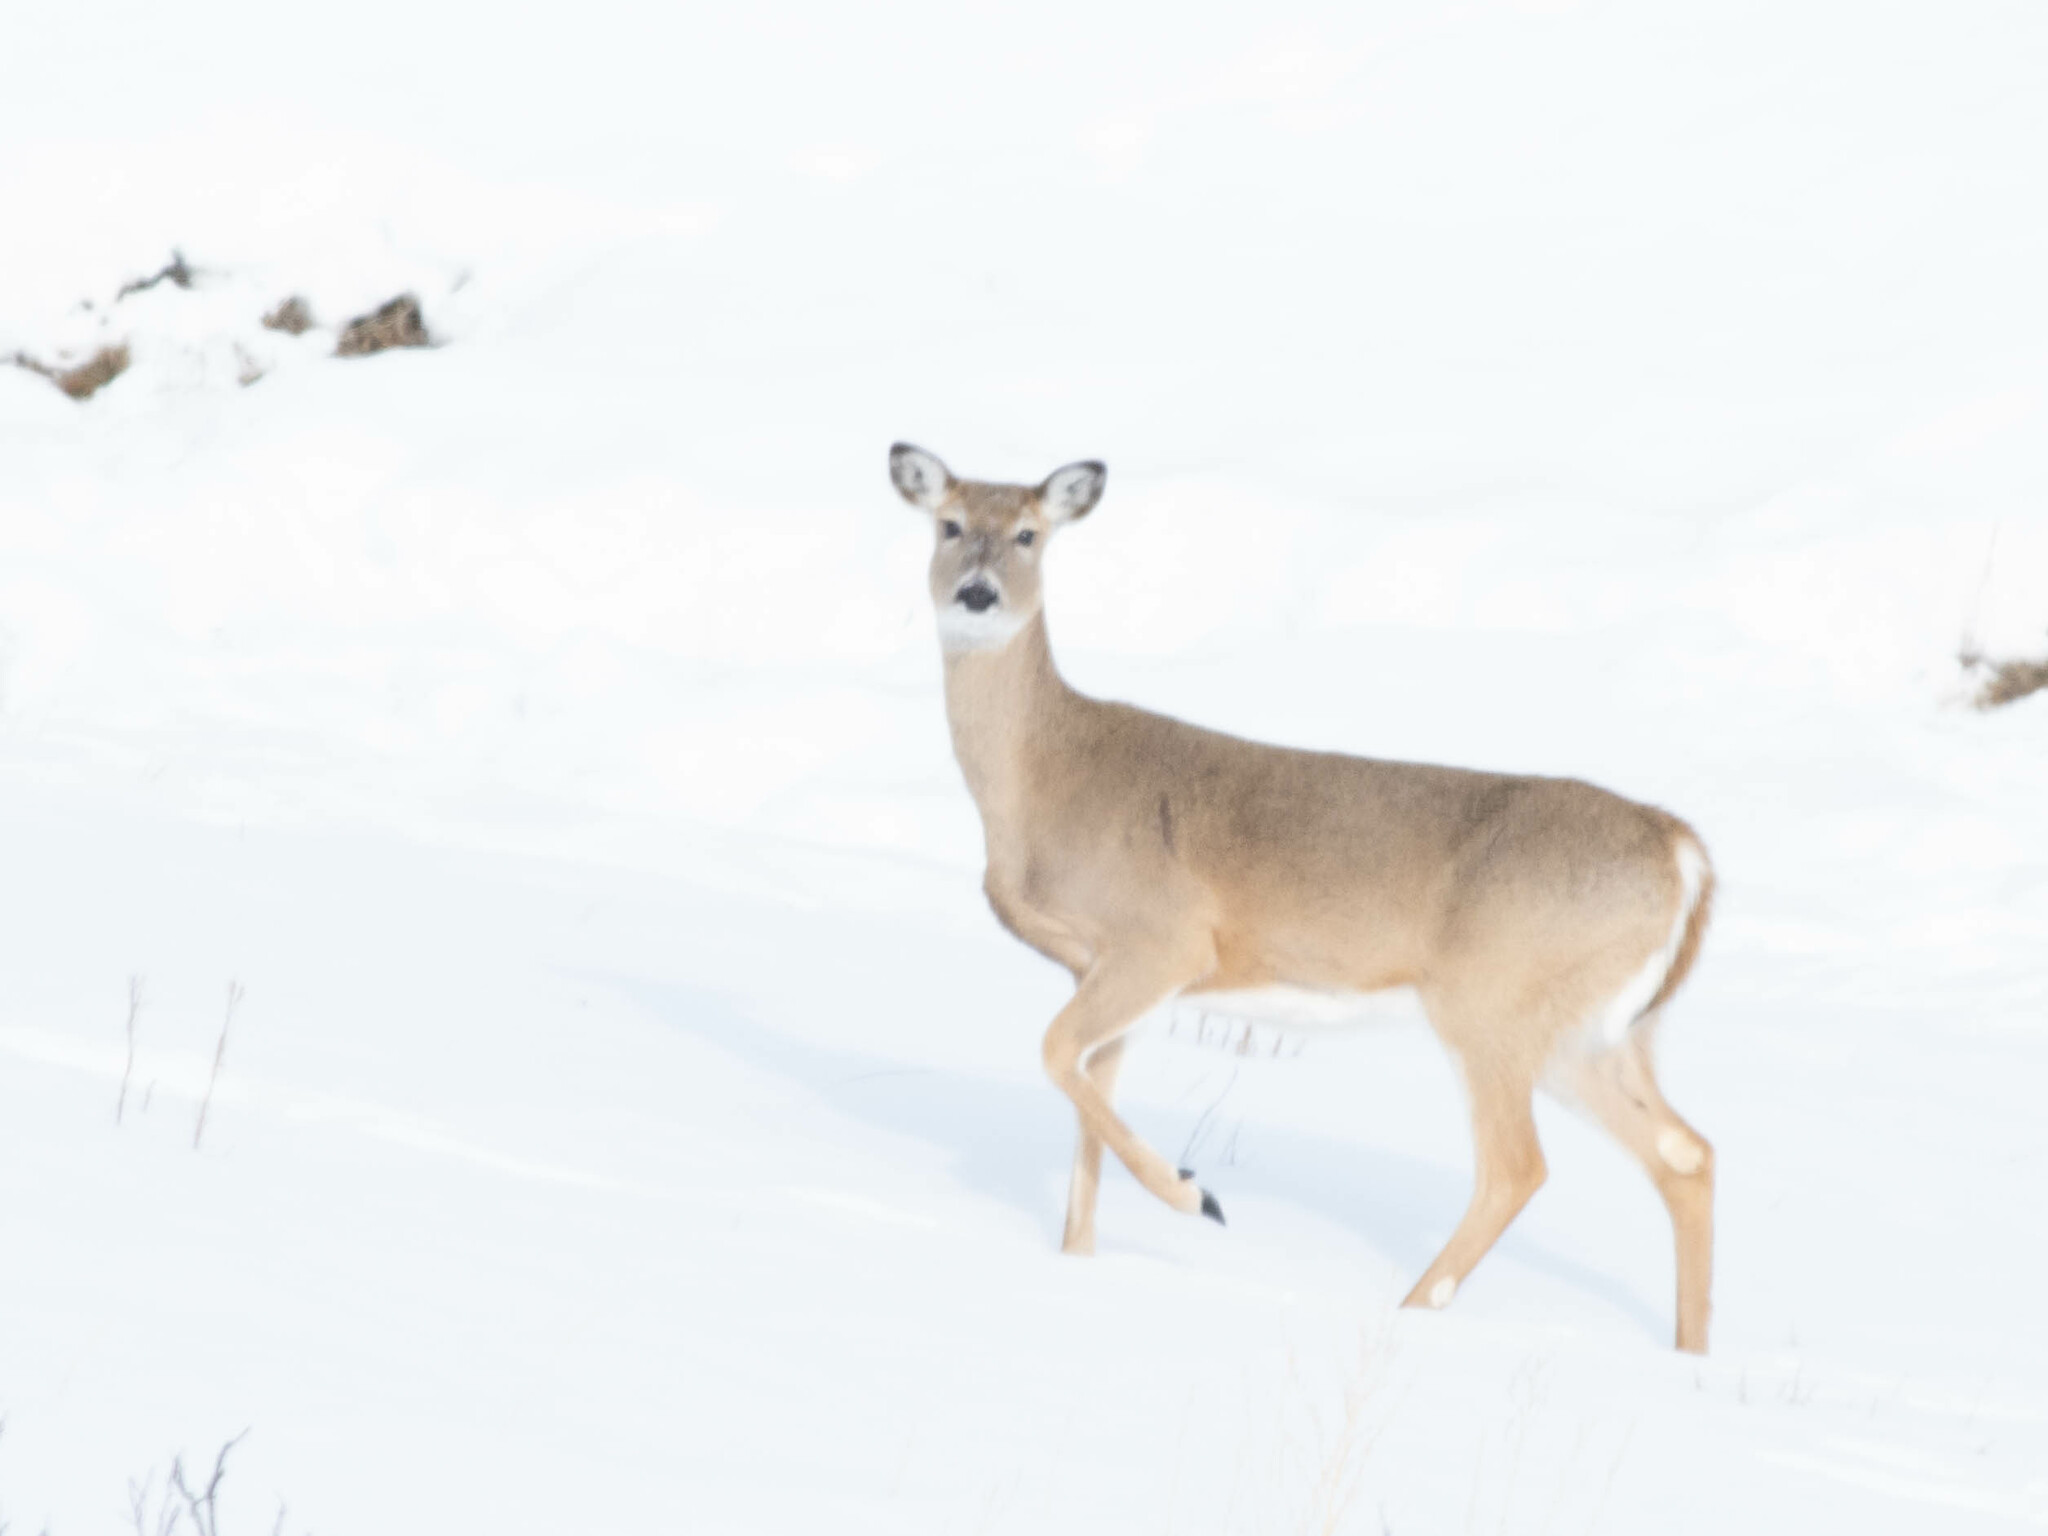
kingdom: Animalia
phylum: Chordata
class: Mammalia
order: Artiodactyla
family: Cervidae
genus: Odocoileus
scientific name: Odocoileus virginianus
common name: White-tailed deer
